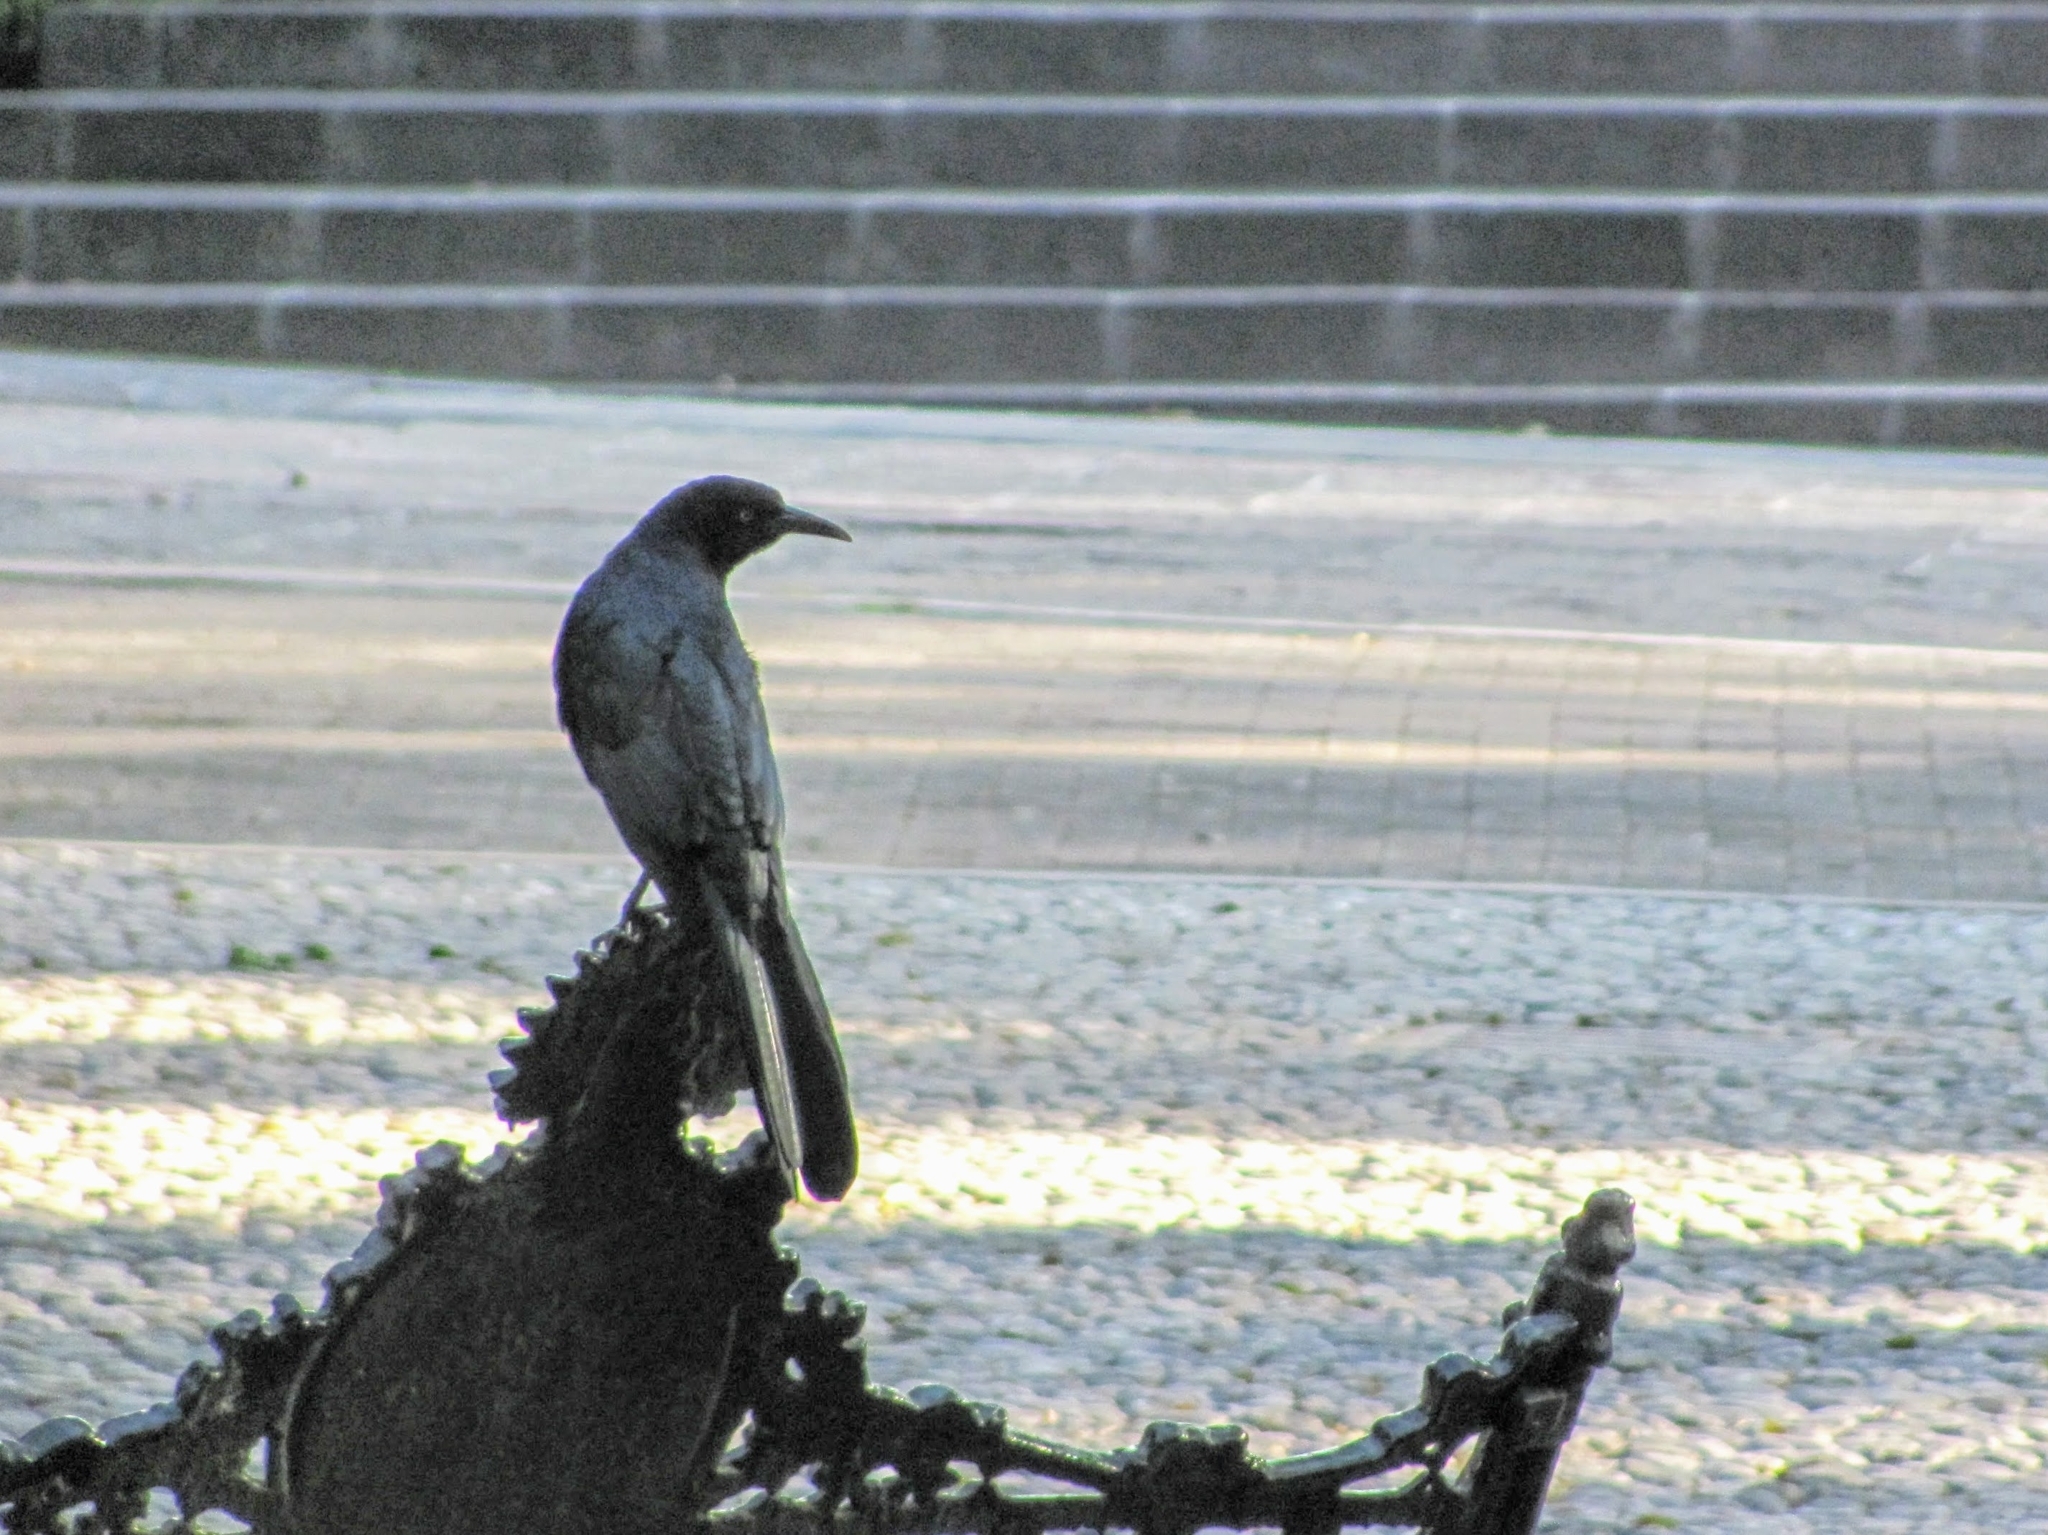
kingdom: Animalia
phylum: Chordata
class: Aves
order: Passeriformes
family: Icteridae
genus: Quiscalus
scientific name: Quiscalus mexicanus
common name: Great-tailed grackle
